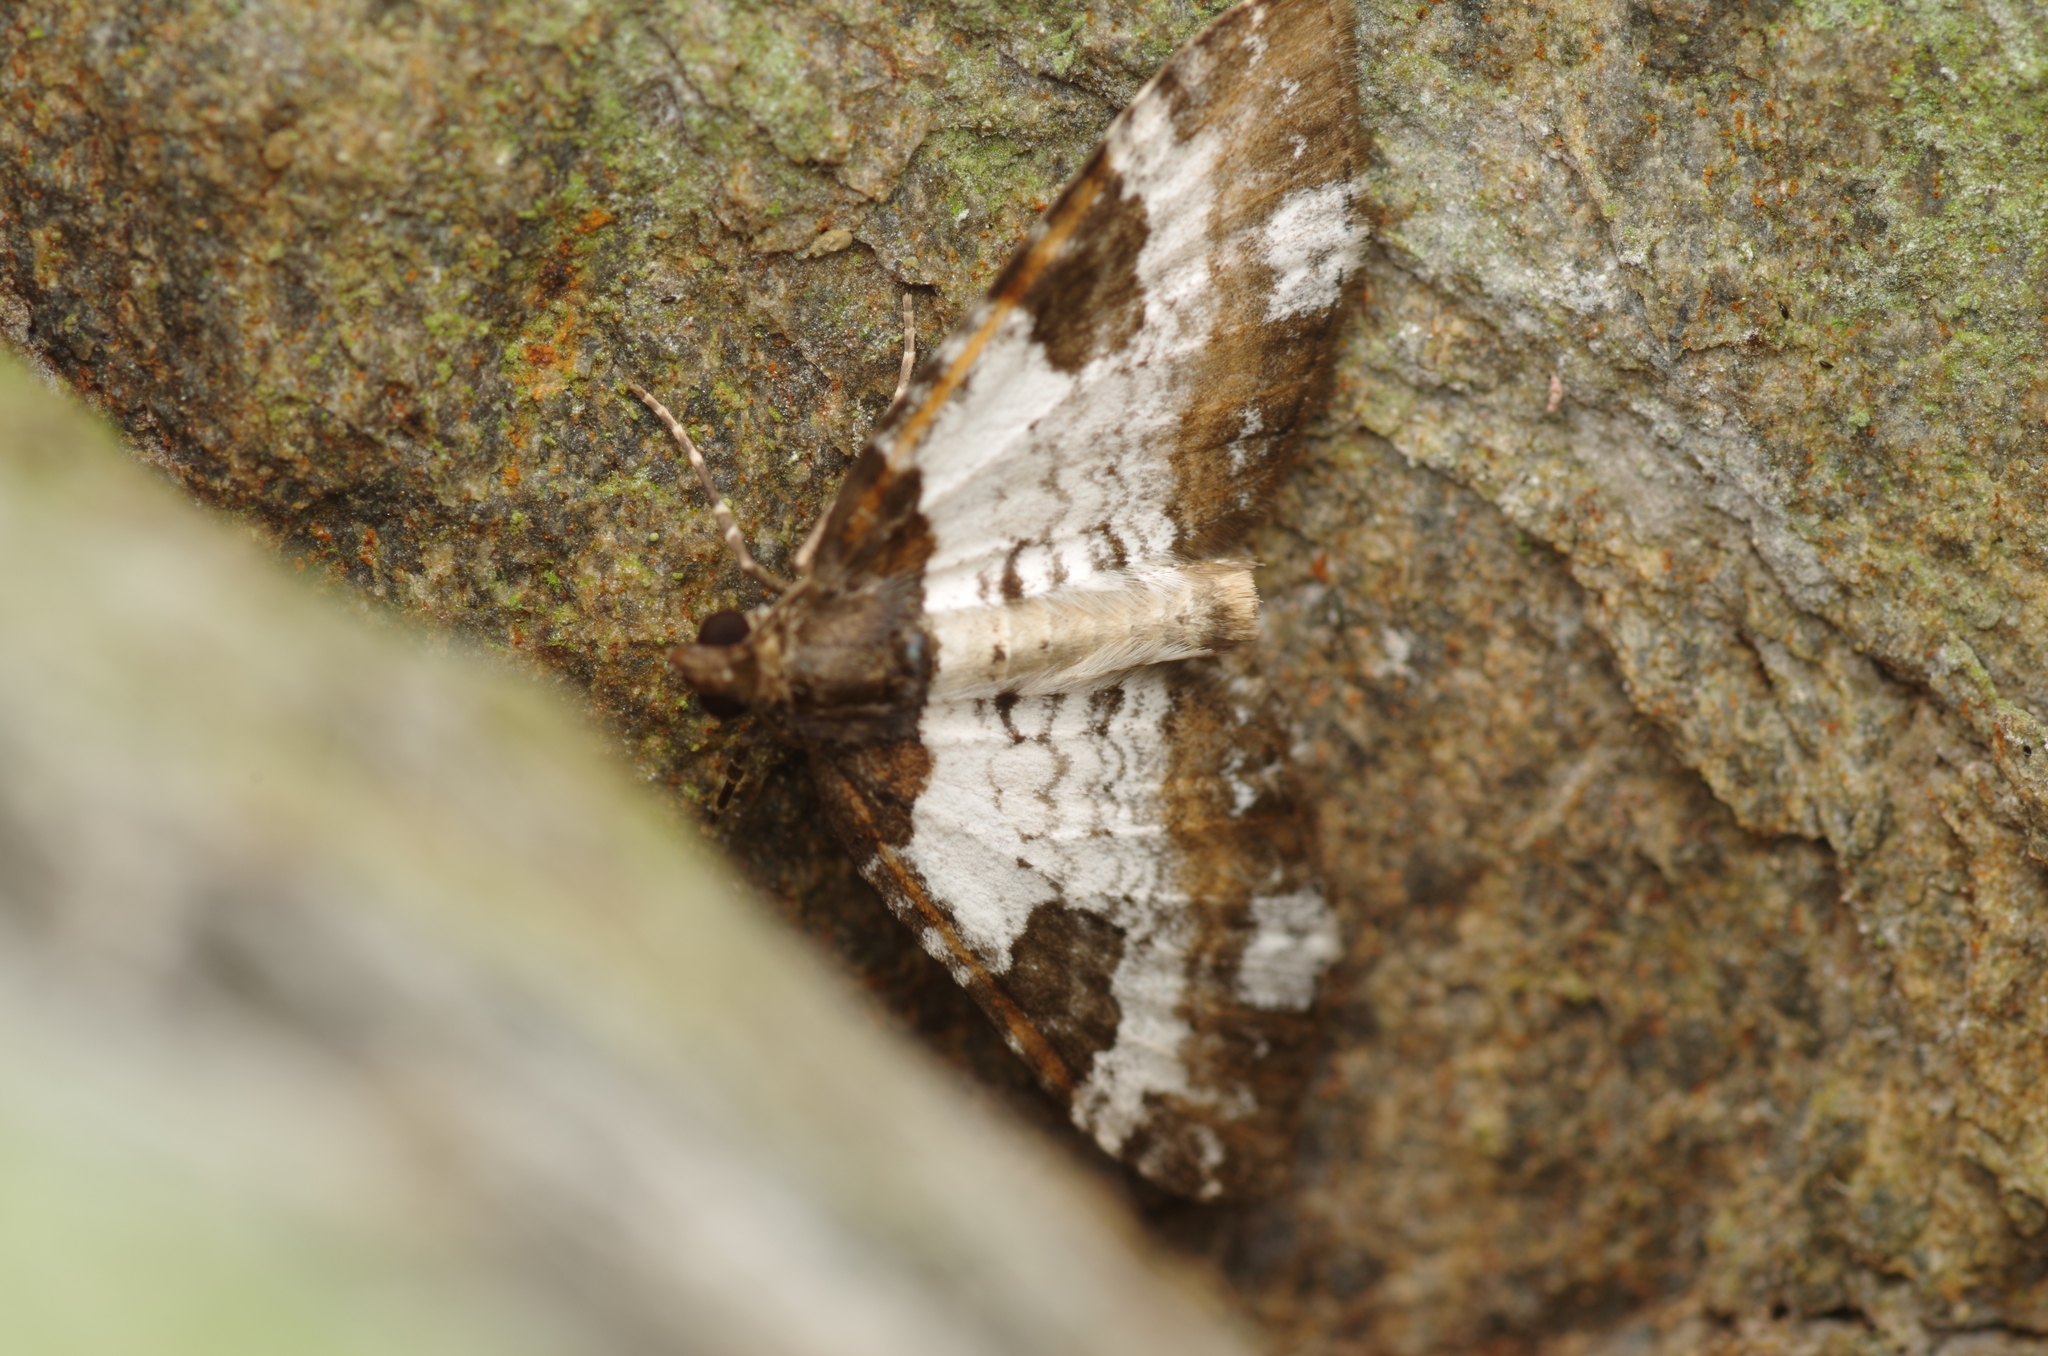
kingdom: Animalia
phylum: Arthropoda
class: Insecta
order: Lepidoptera
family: Geometridae
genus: Melanthia
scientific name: Melanthia procellata
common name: Pretty chalk carpet
